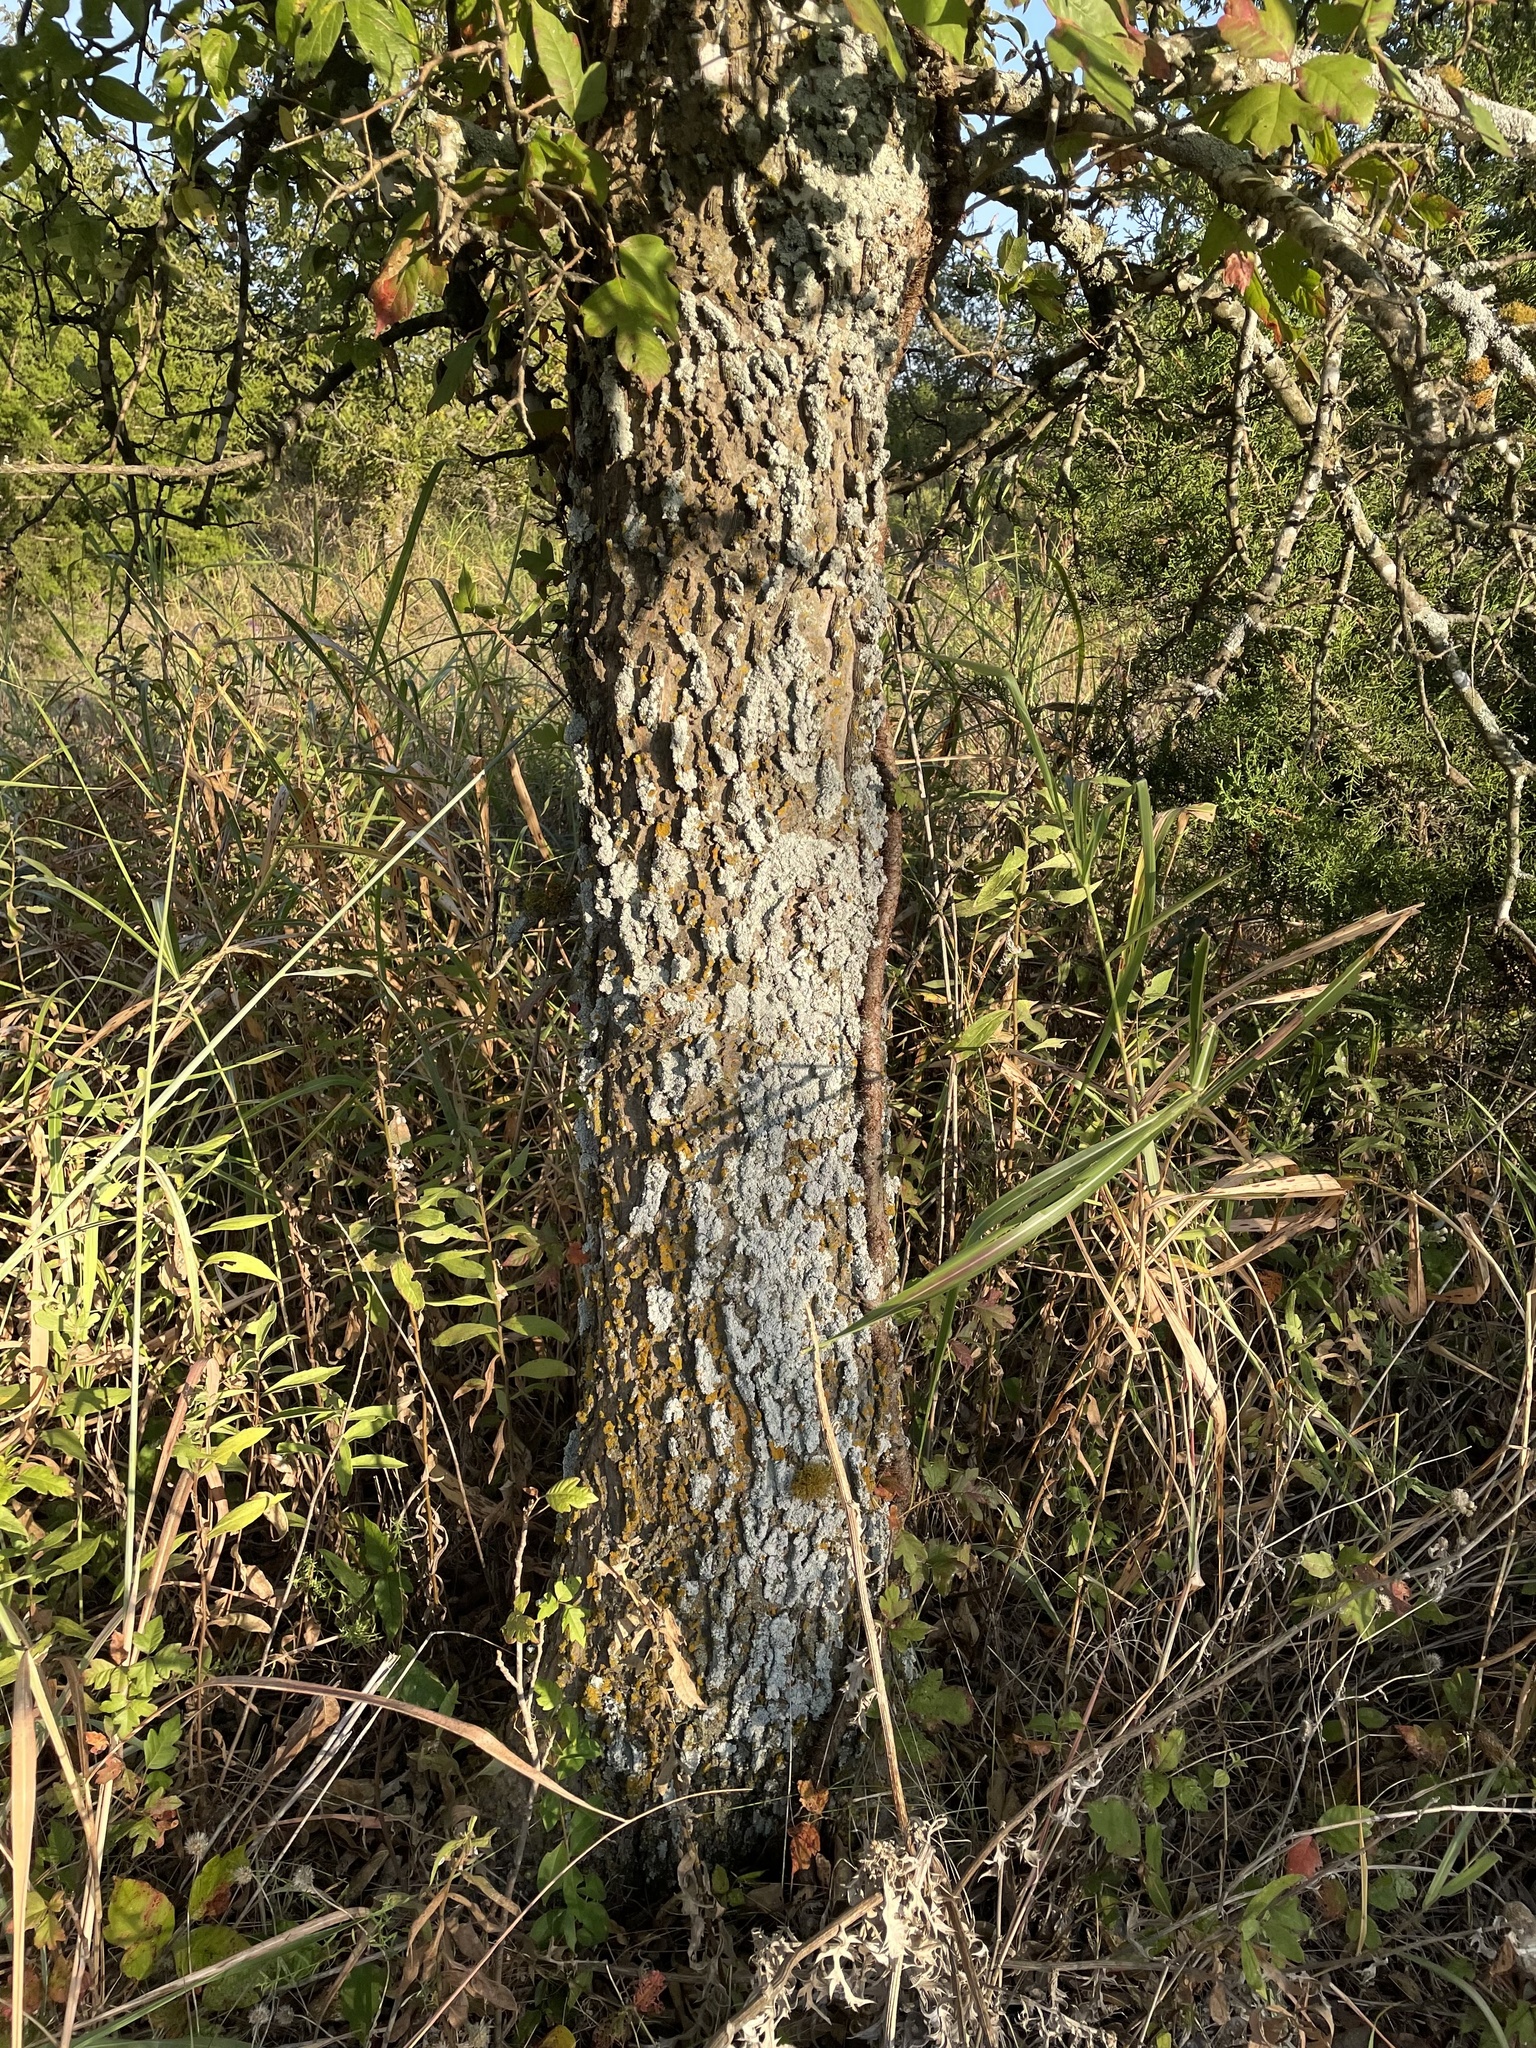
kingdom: Plantae
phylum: Tracheophyta
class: Magnoliopsida
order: Rosales
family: Cannabaceae
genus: Celtis
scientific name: Celtis laevigata
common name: Sugarberry
